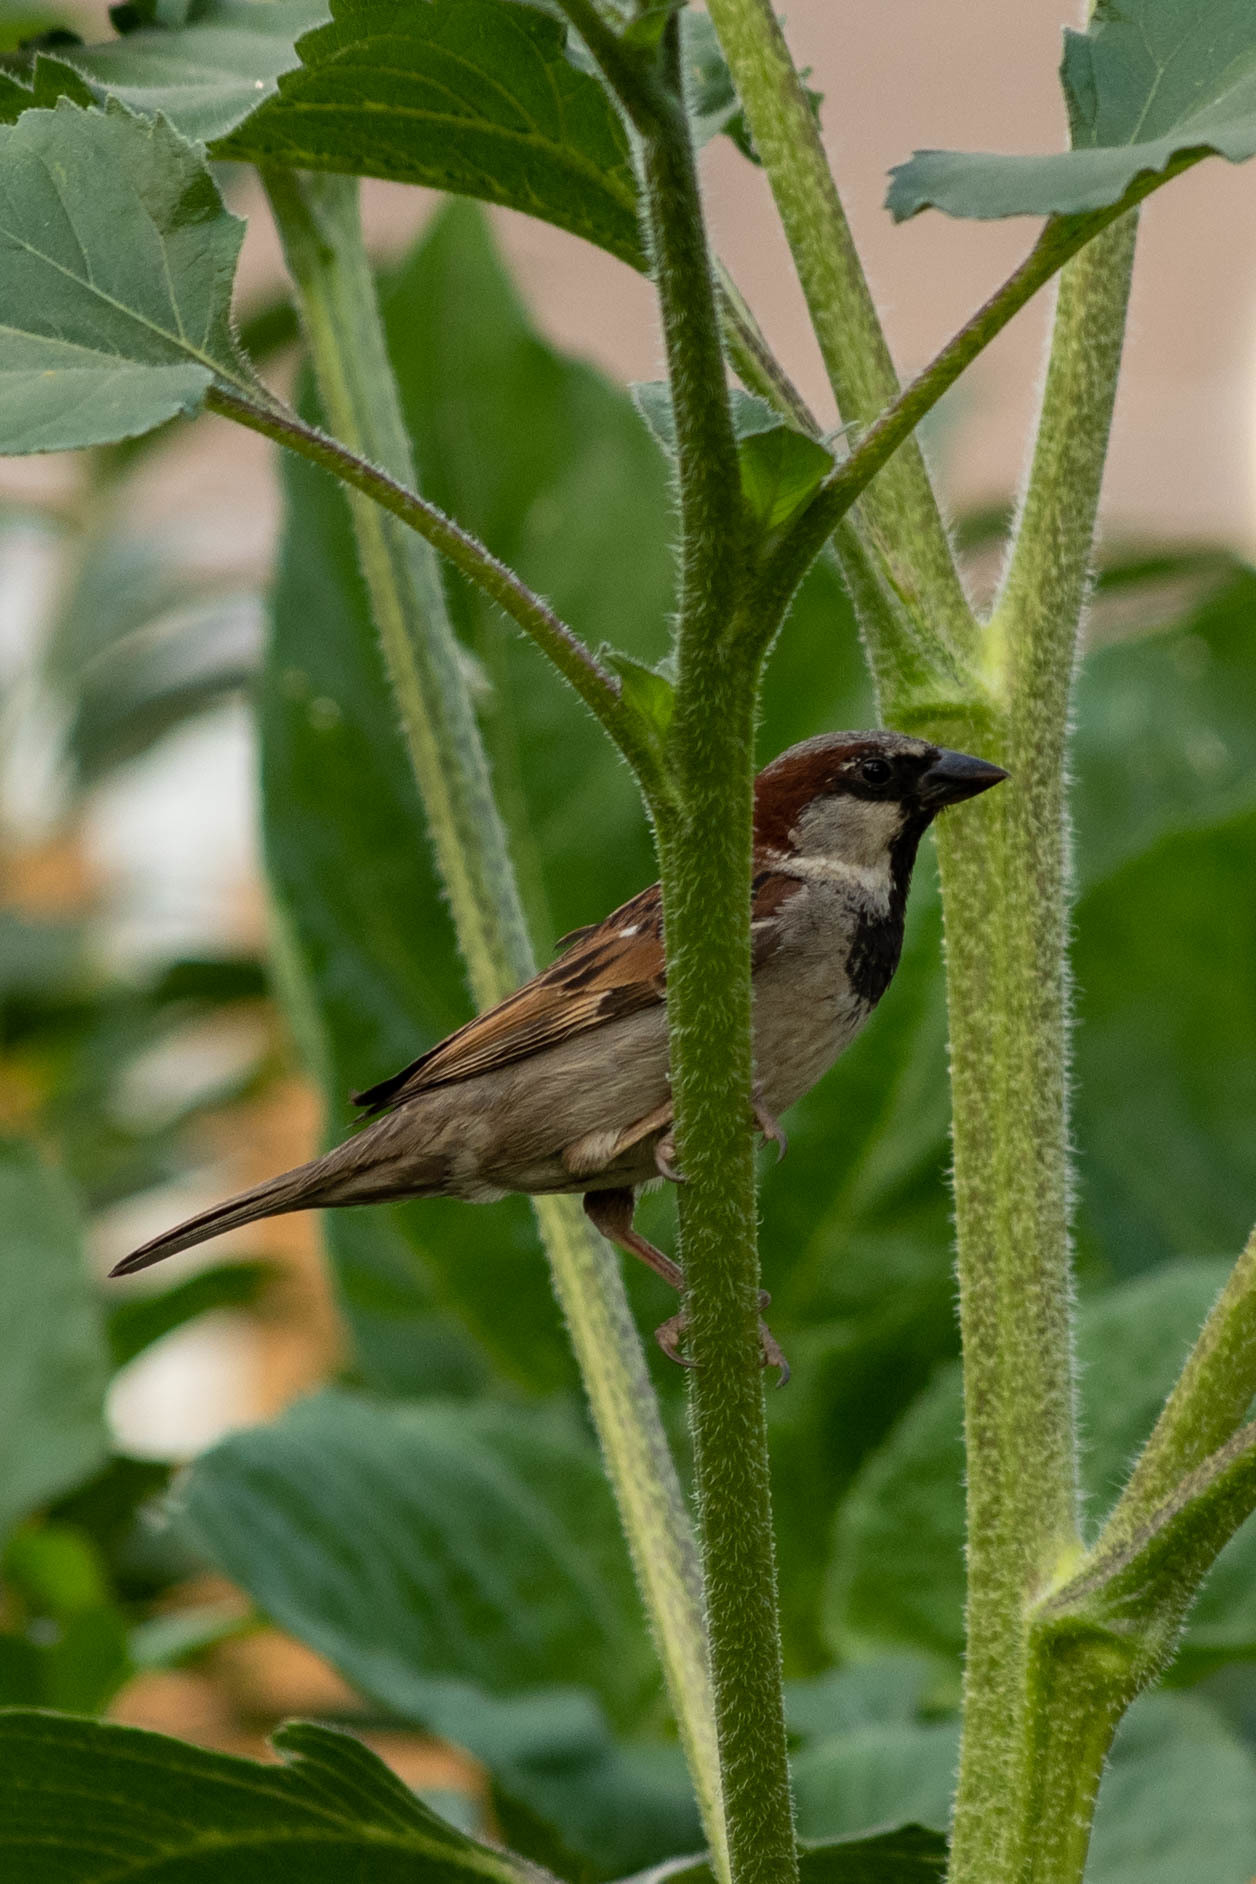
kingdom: Animalia
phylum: Chordata
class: Aves
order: Passeriformes
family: Passeridae
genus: Passer
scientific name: Passer domesticus
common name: House sparrow
